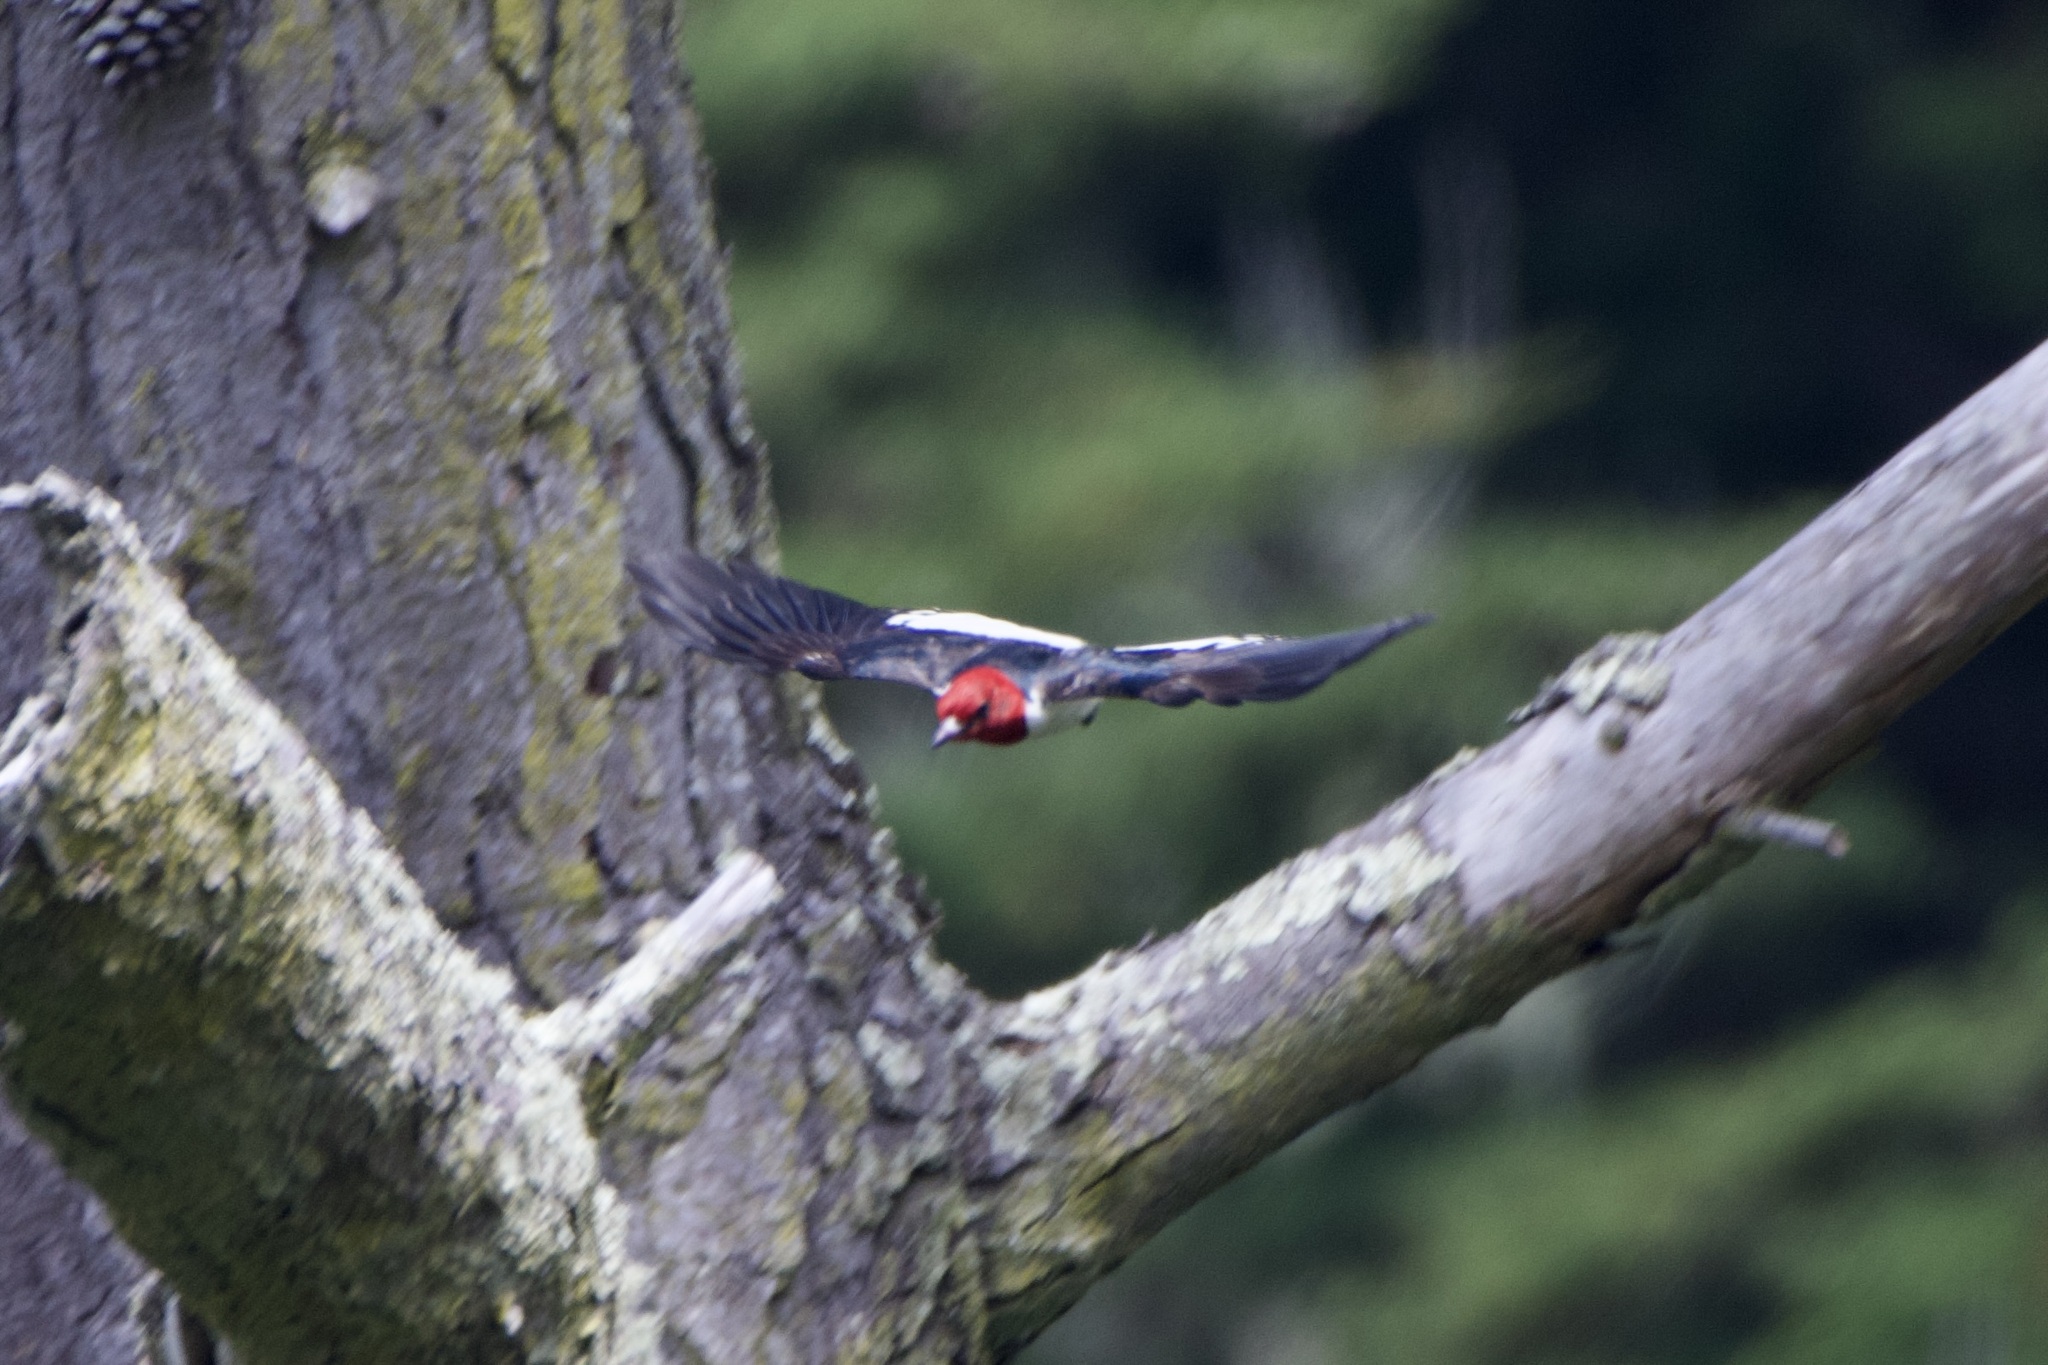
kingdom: Animalia
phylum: Chordata
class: Aves
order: Piciformes
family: Picidae
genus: Melanerpes
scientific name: Melanerpes erythrocephalus
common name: Red-headed woodpecker
